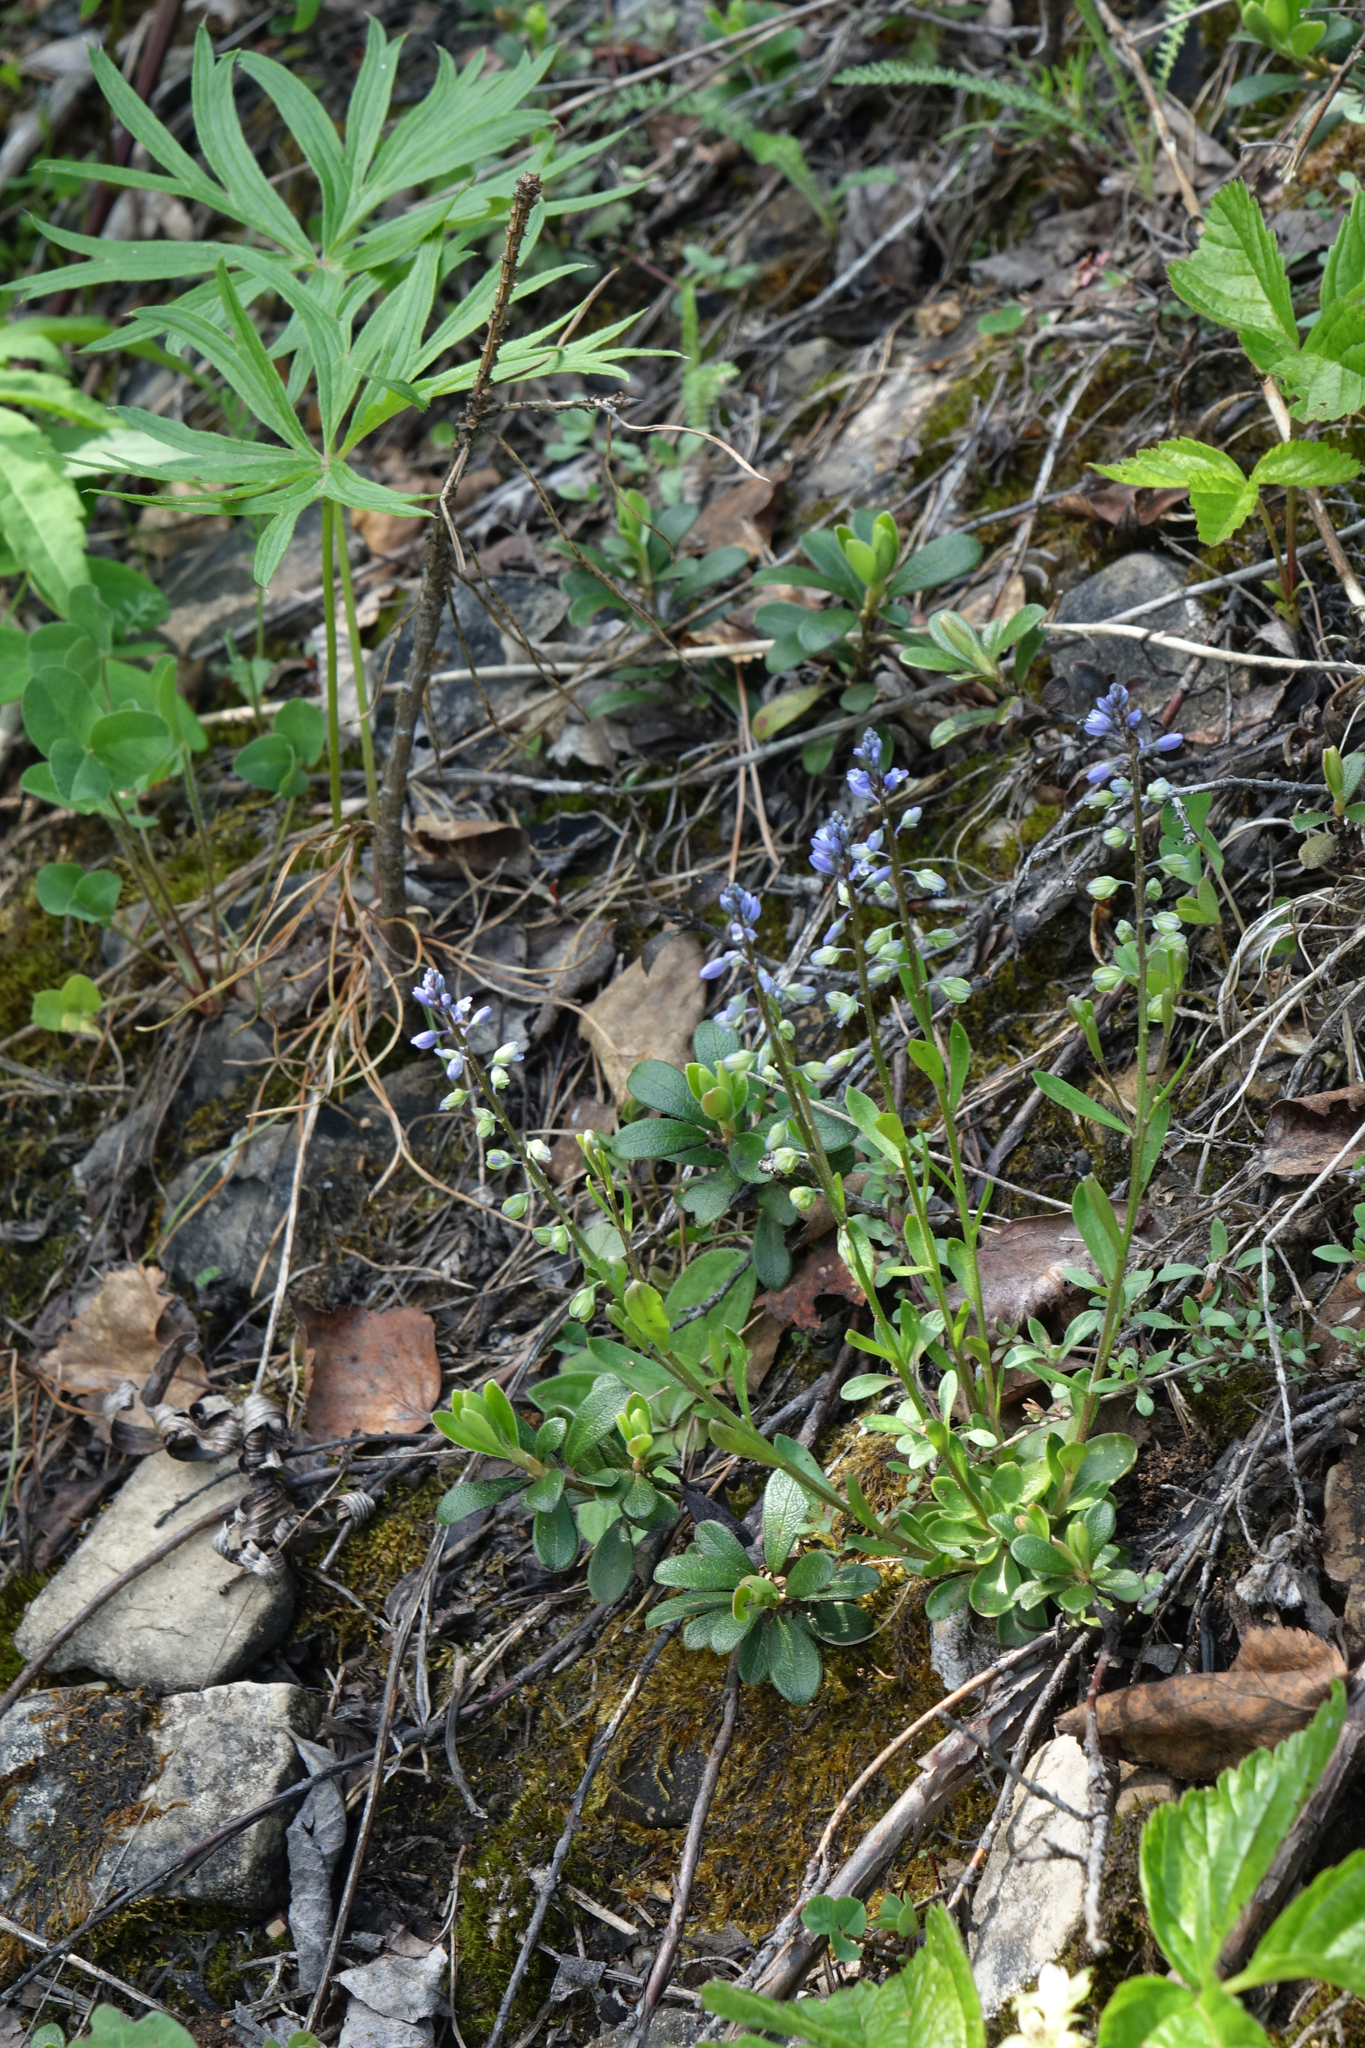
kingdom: Plantae
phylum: Tracheophyta
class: Magnoliopsida
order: Fabales
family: Polygalaceae
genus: Polygala
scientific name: Polygala amarella
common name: Dwarf milkwort
